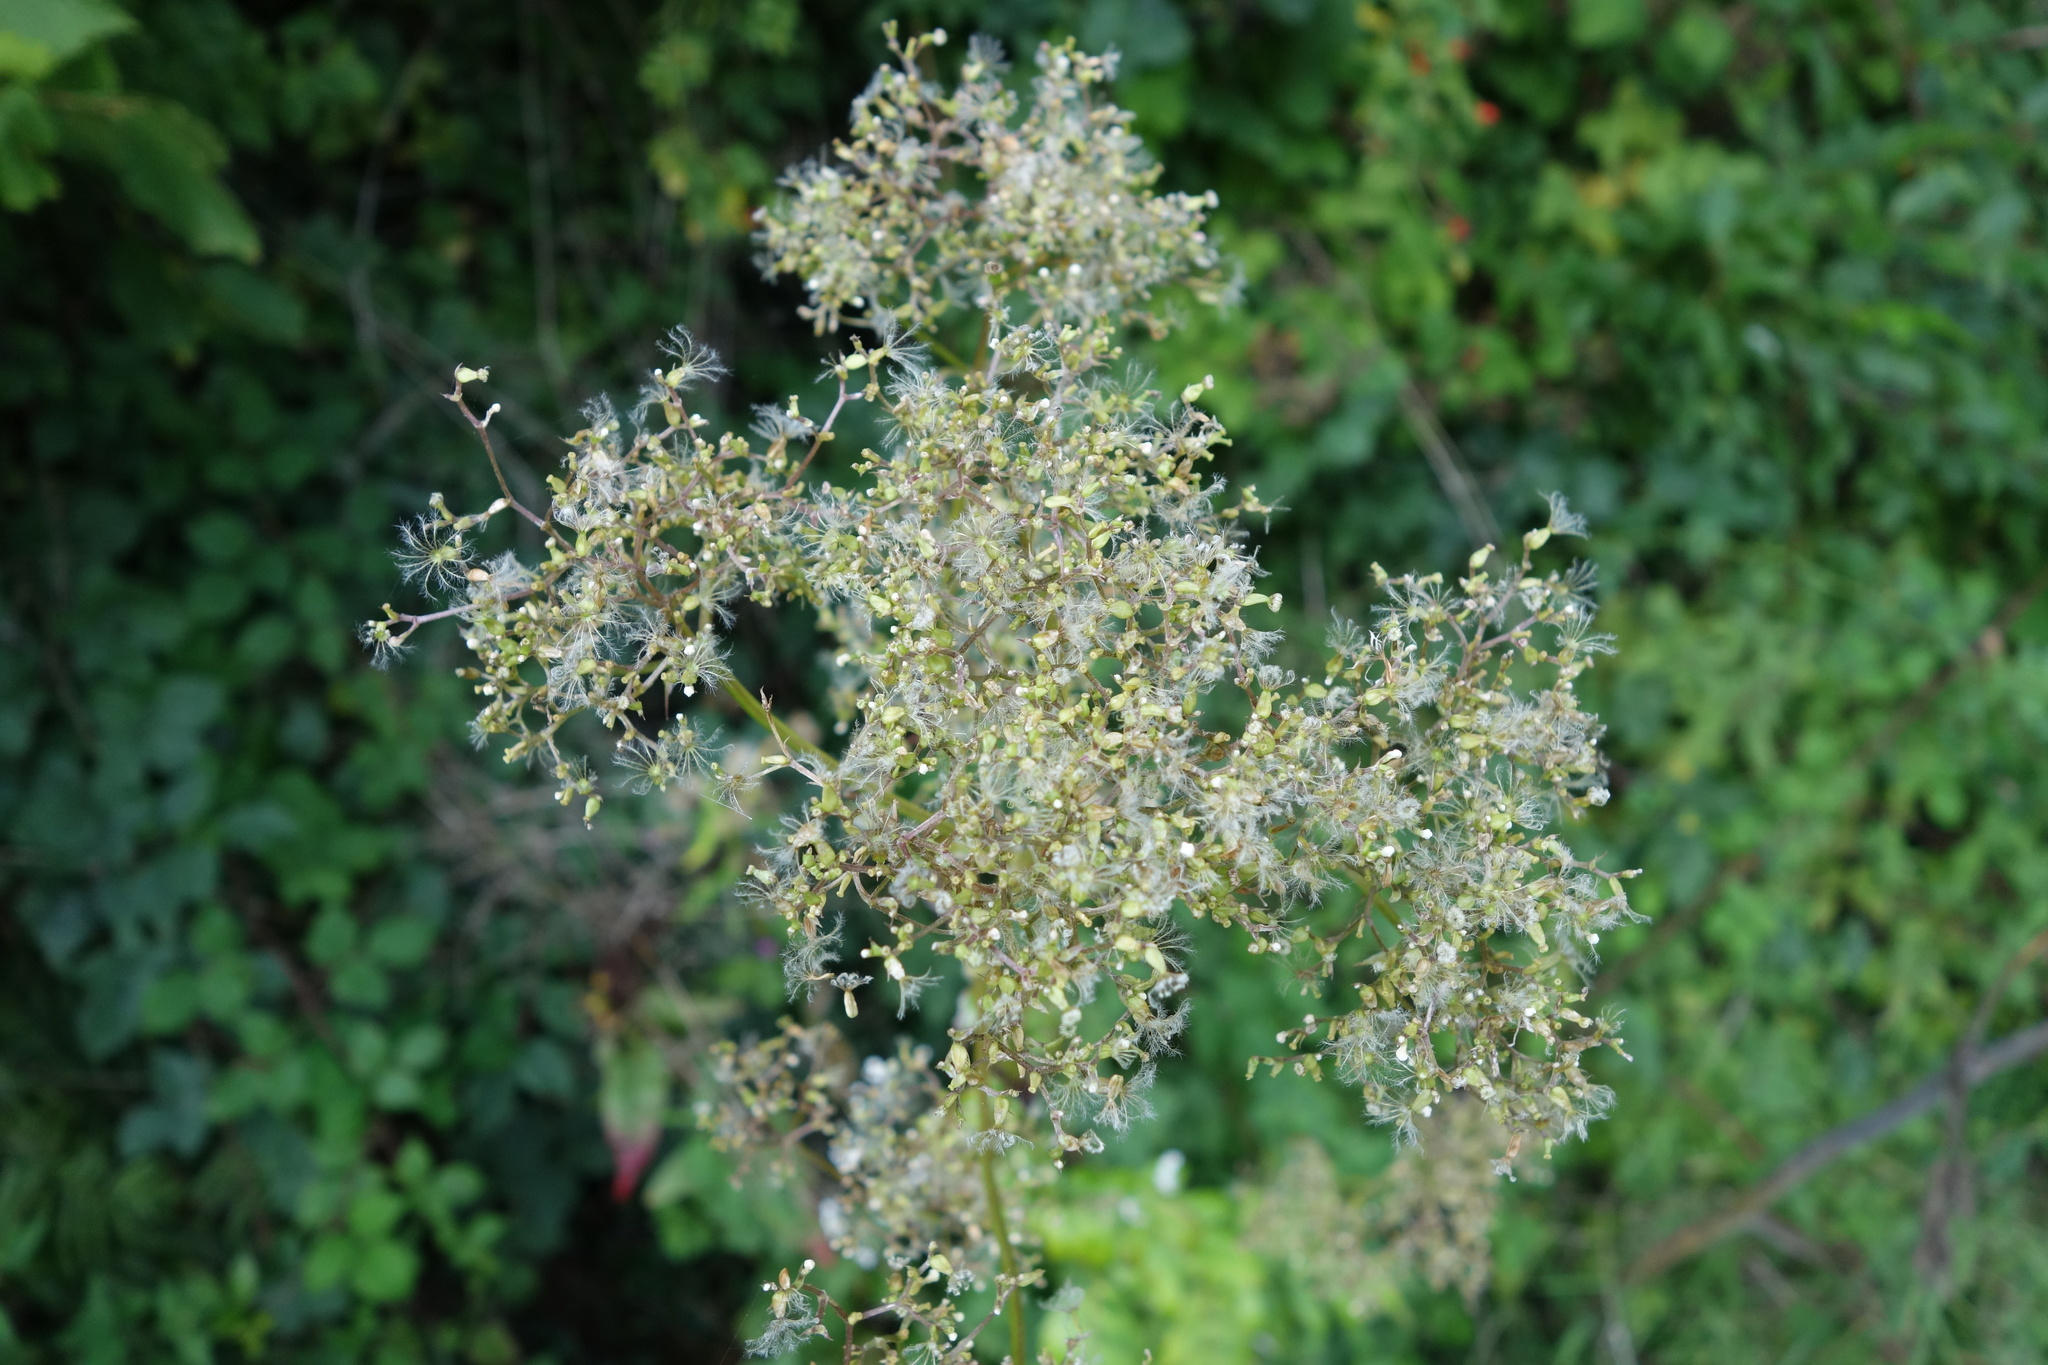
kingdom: Plantae
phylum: Tracheophyta
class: Magnoliopsida
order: Dipsacales
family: Caprifoliaceae
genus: Valeriana
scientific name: Valeriana officinalis
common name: Common valerian
